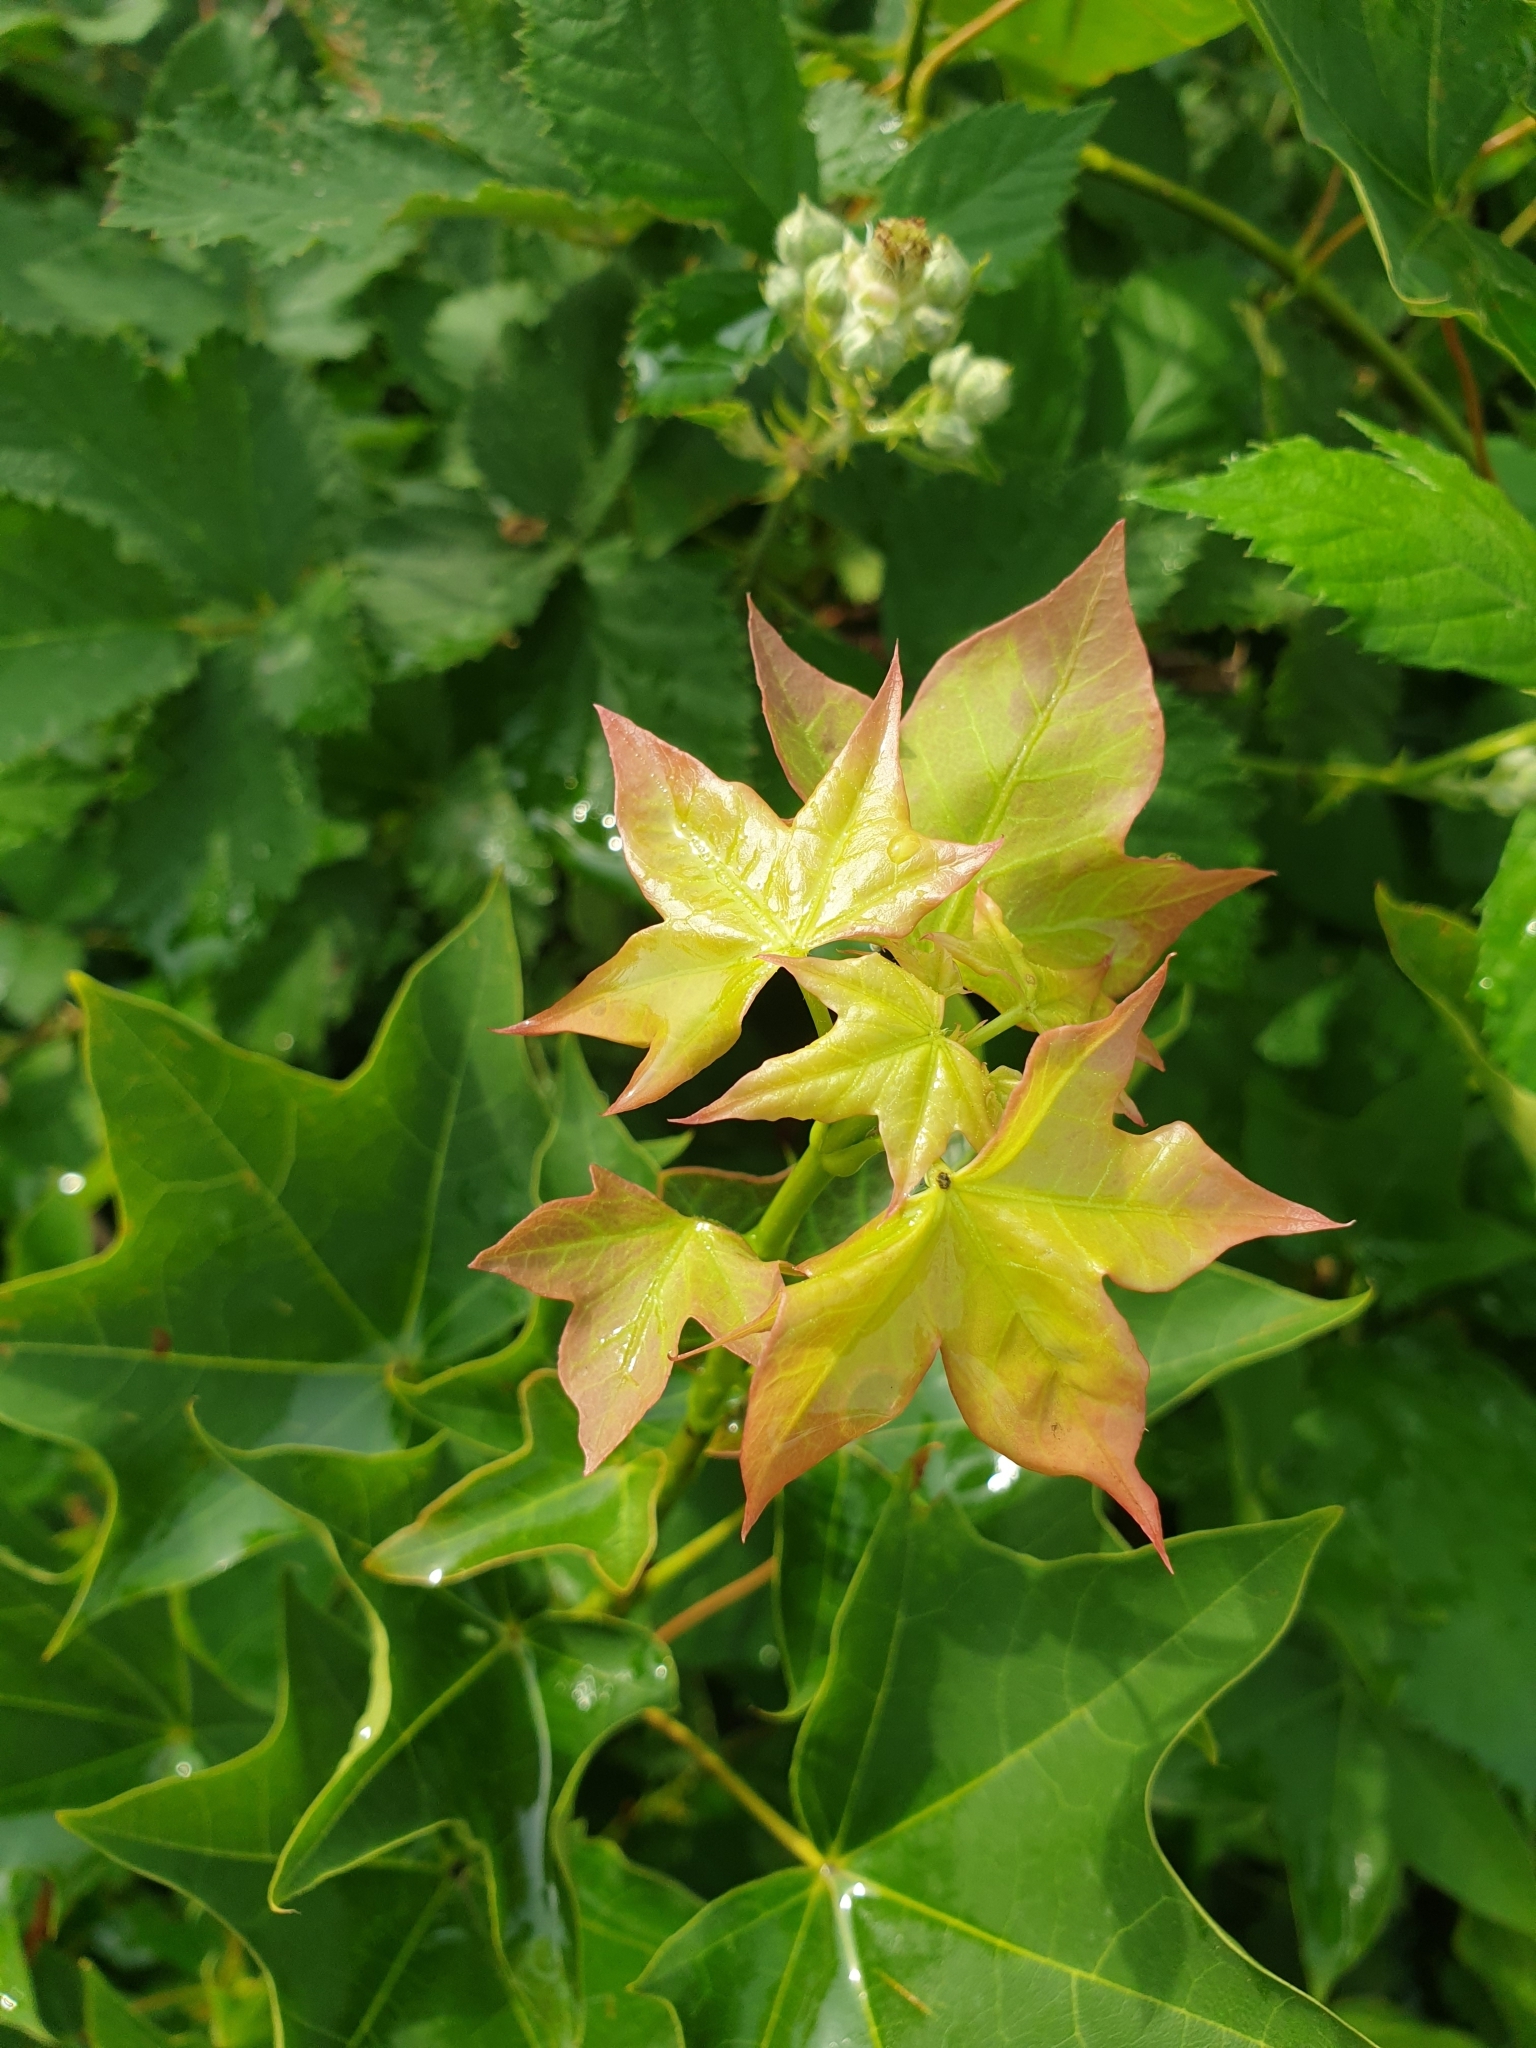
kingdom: Plantae
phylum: Tracheophyta
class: Magnoliopsida
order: Sapindales
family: Sapindaceae
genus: Acer
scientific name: Acer cappadocicum
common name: Cappadocian maple
